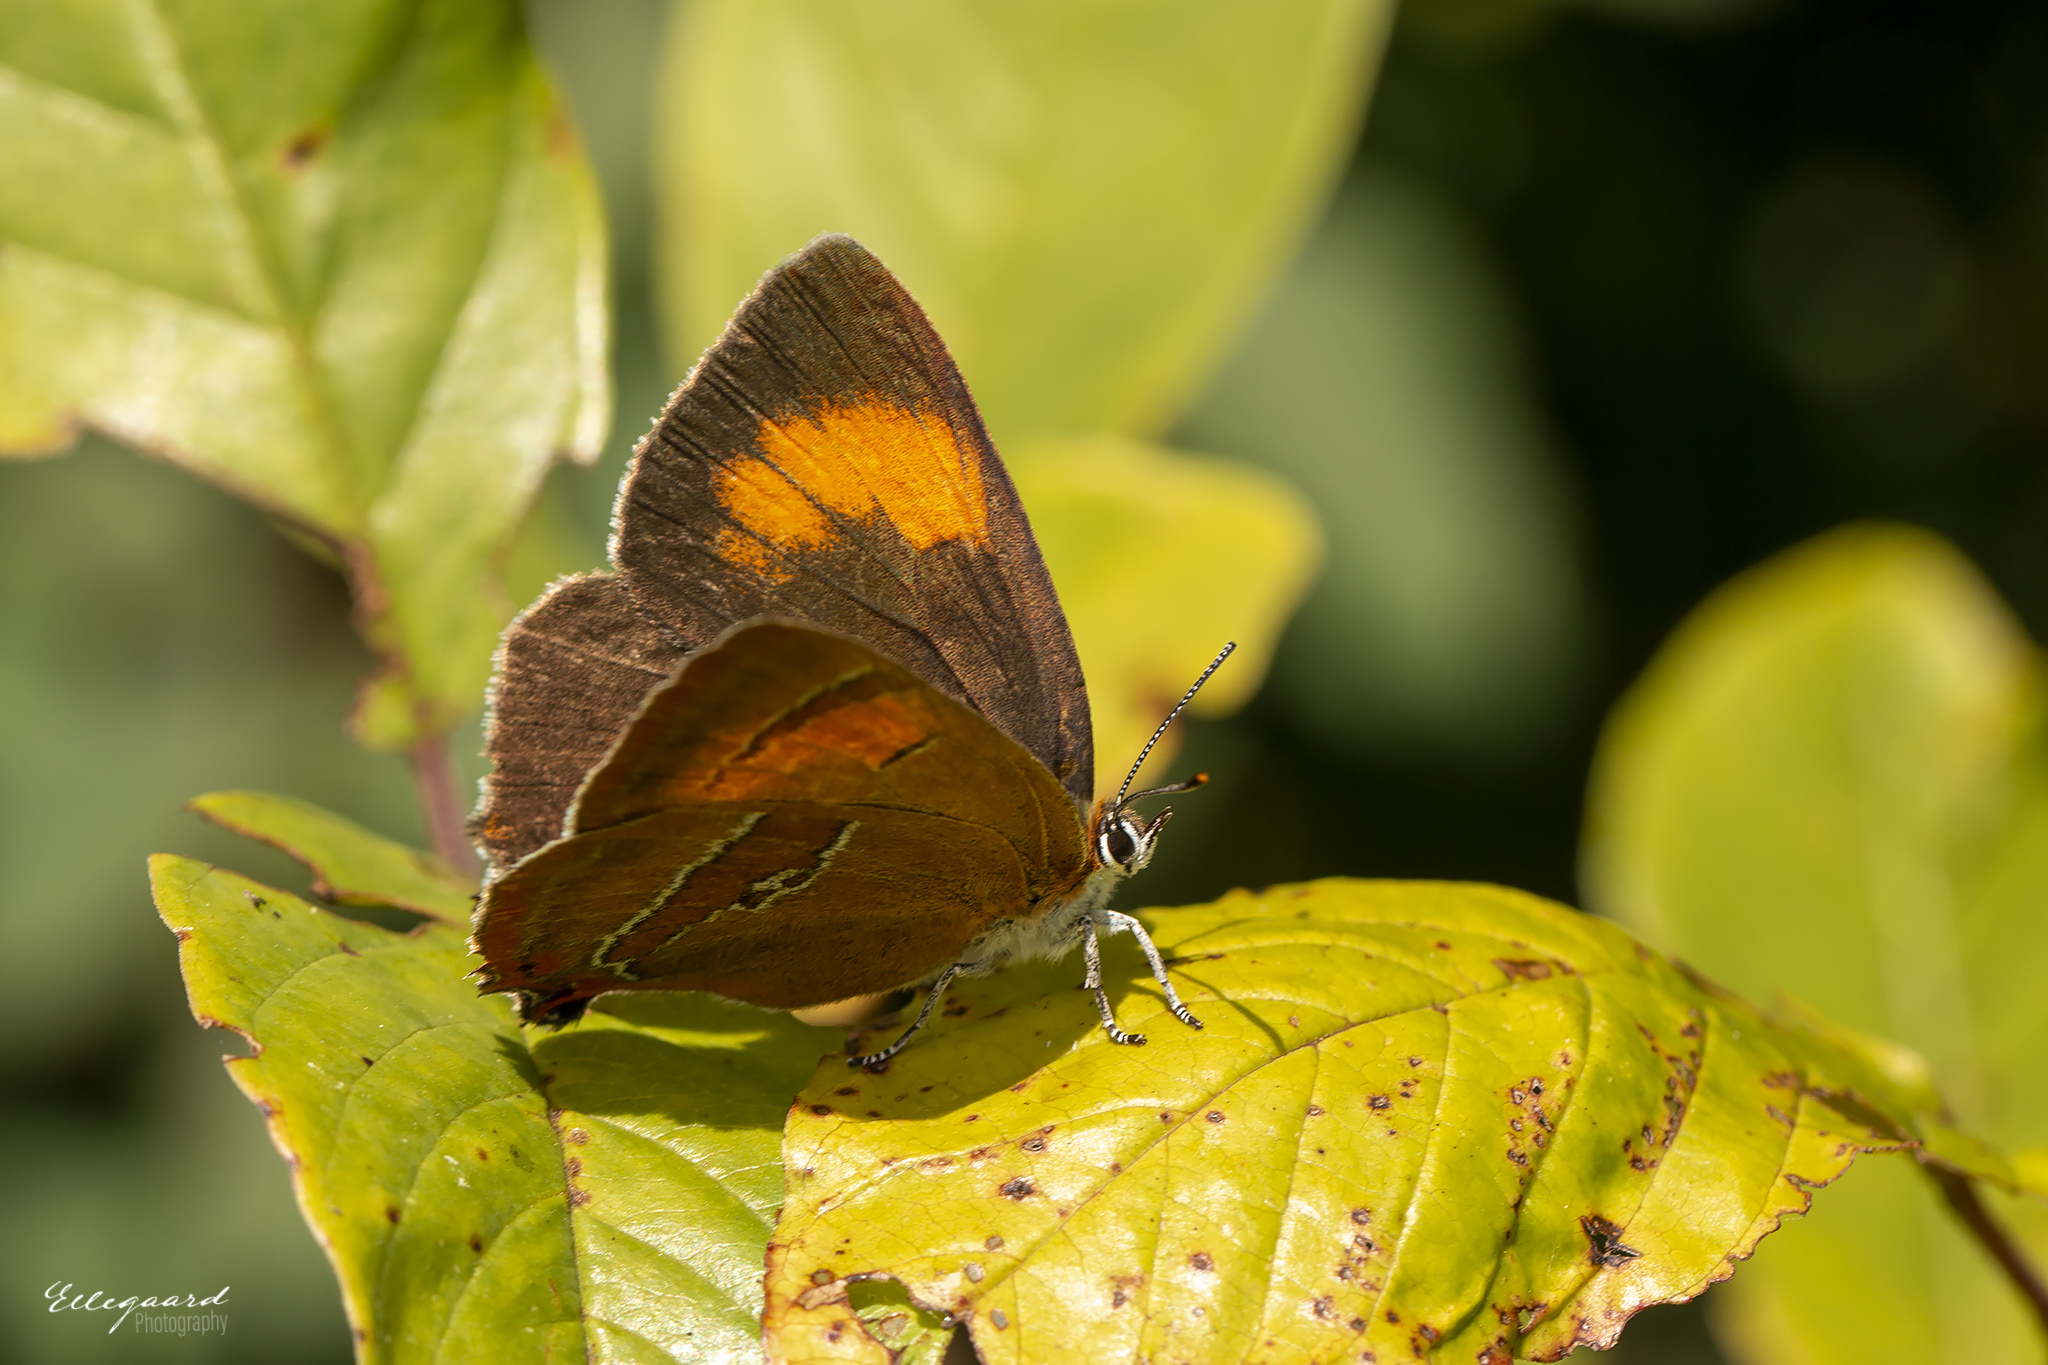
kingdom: Animalia
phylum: Arthropoda
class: Insecta
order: Lepidoptera
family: Lycaenidae
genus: Thecla
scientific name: Thecla betulae
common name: Brown hairstreak
